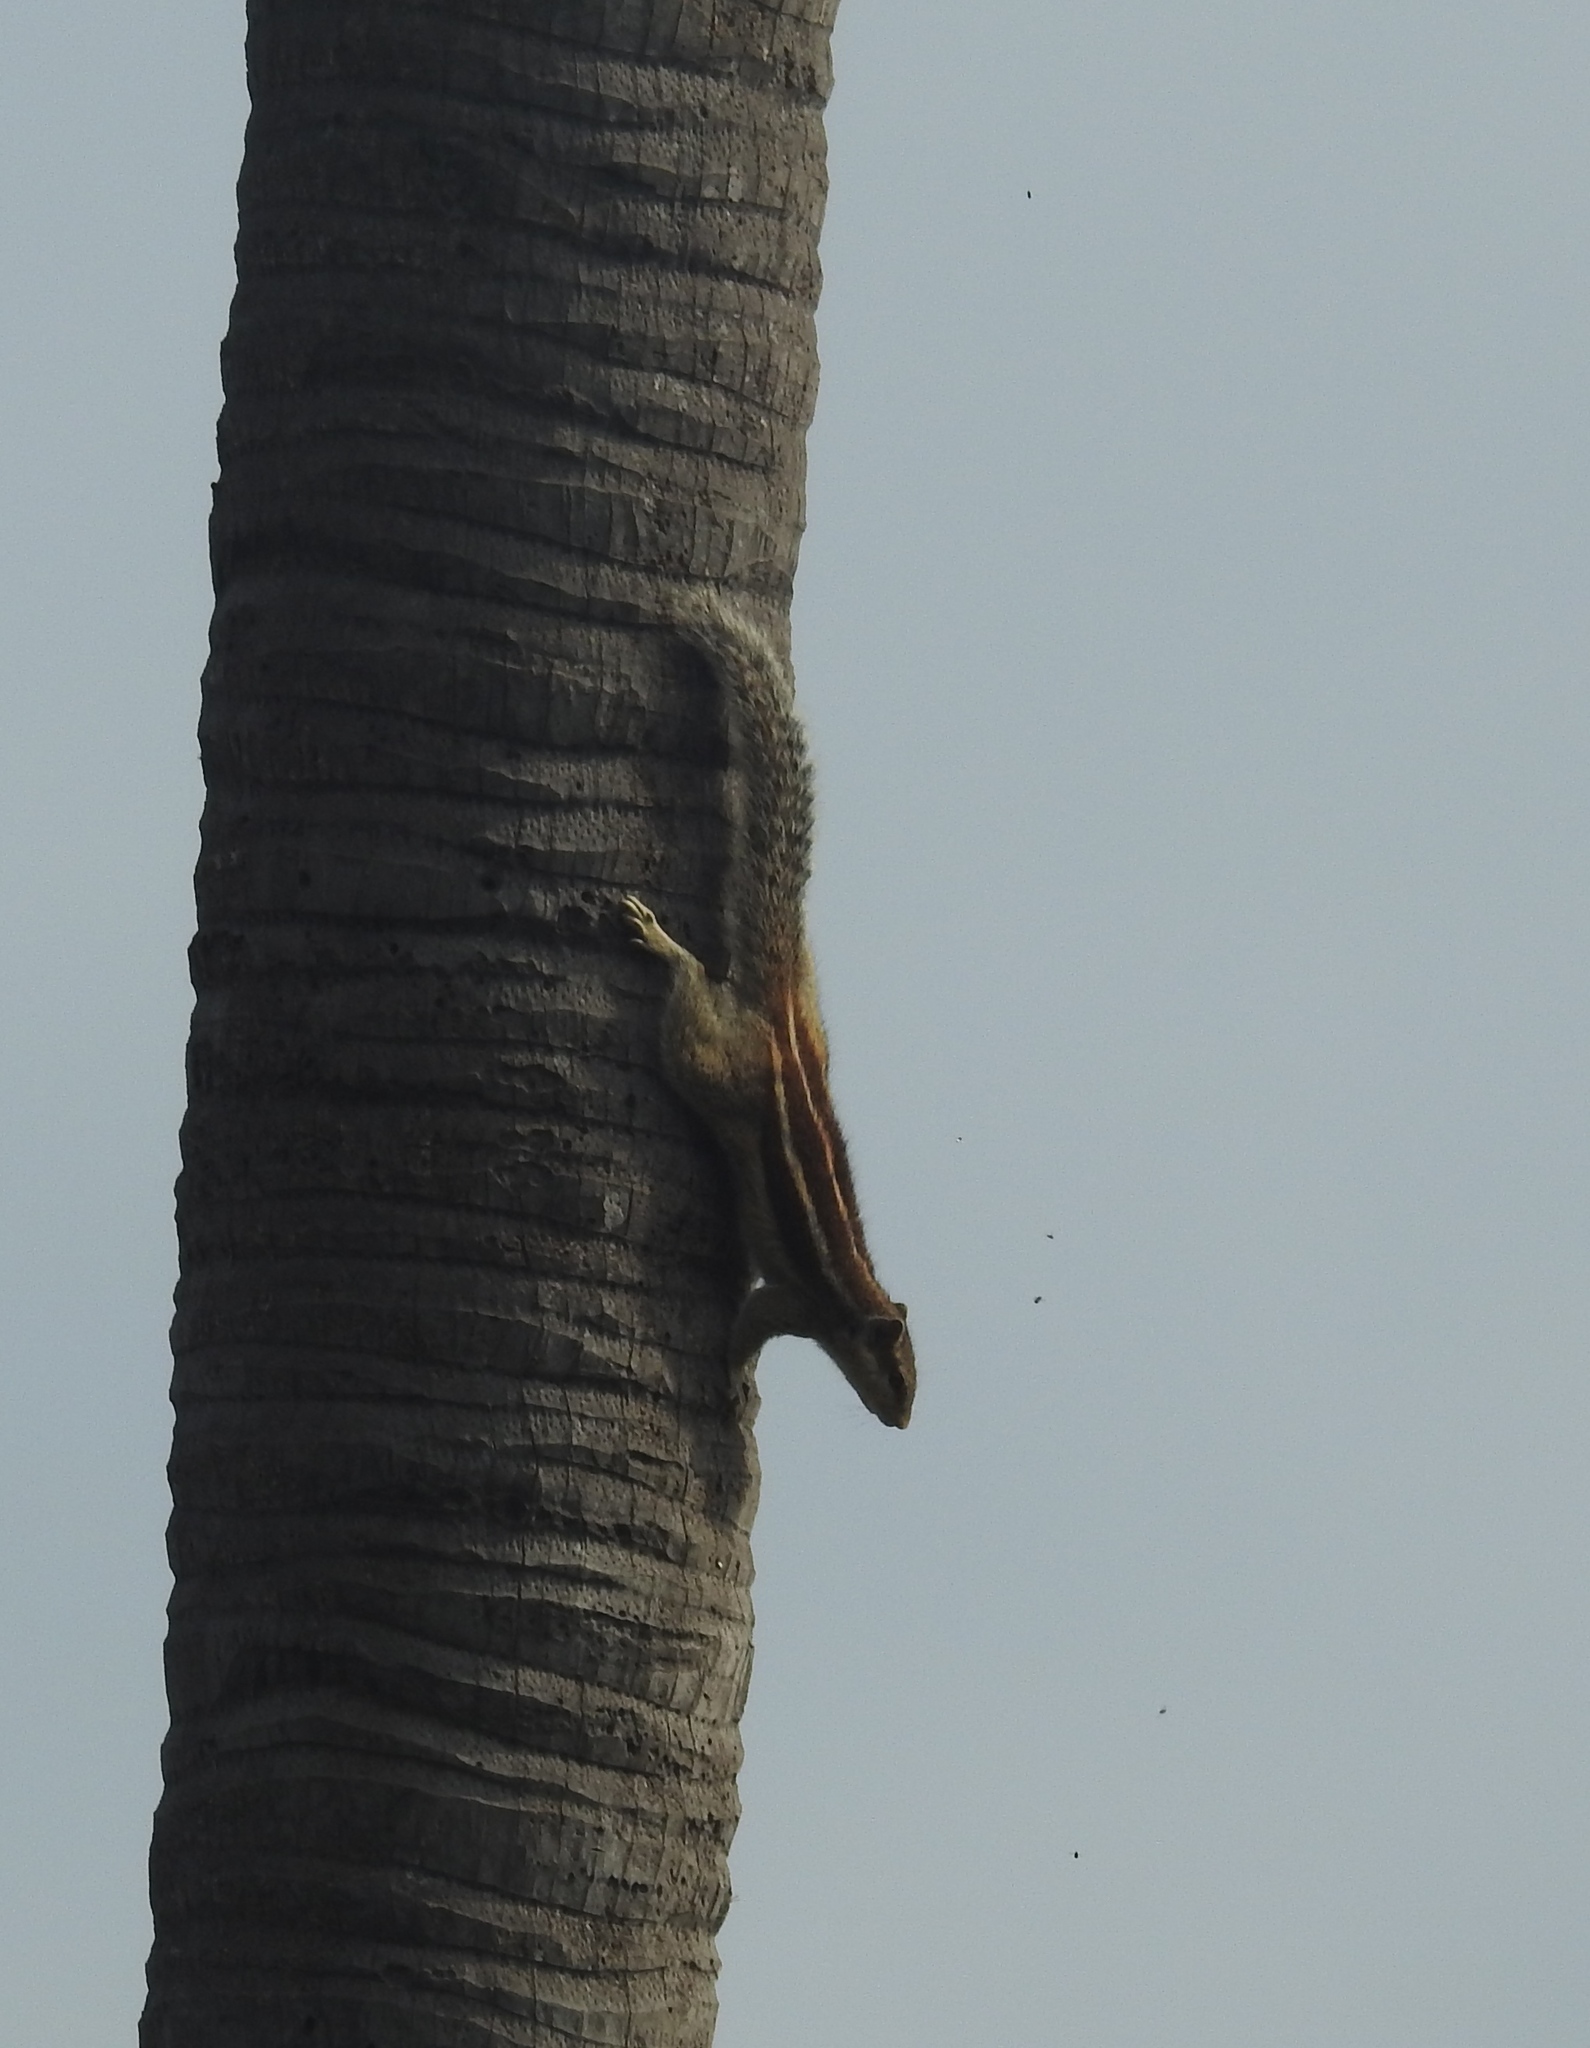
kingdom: Animalia
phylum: Chordata
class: Mammalia
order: Rodentia
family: Sciuridae
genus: Funambulus
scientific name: Funambulus pennantii
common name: Northern palm squirrel
